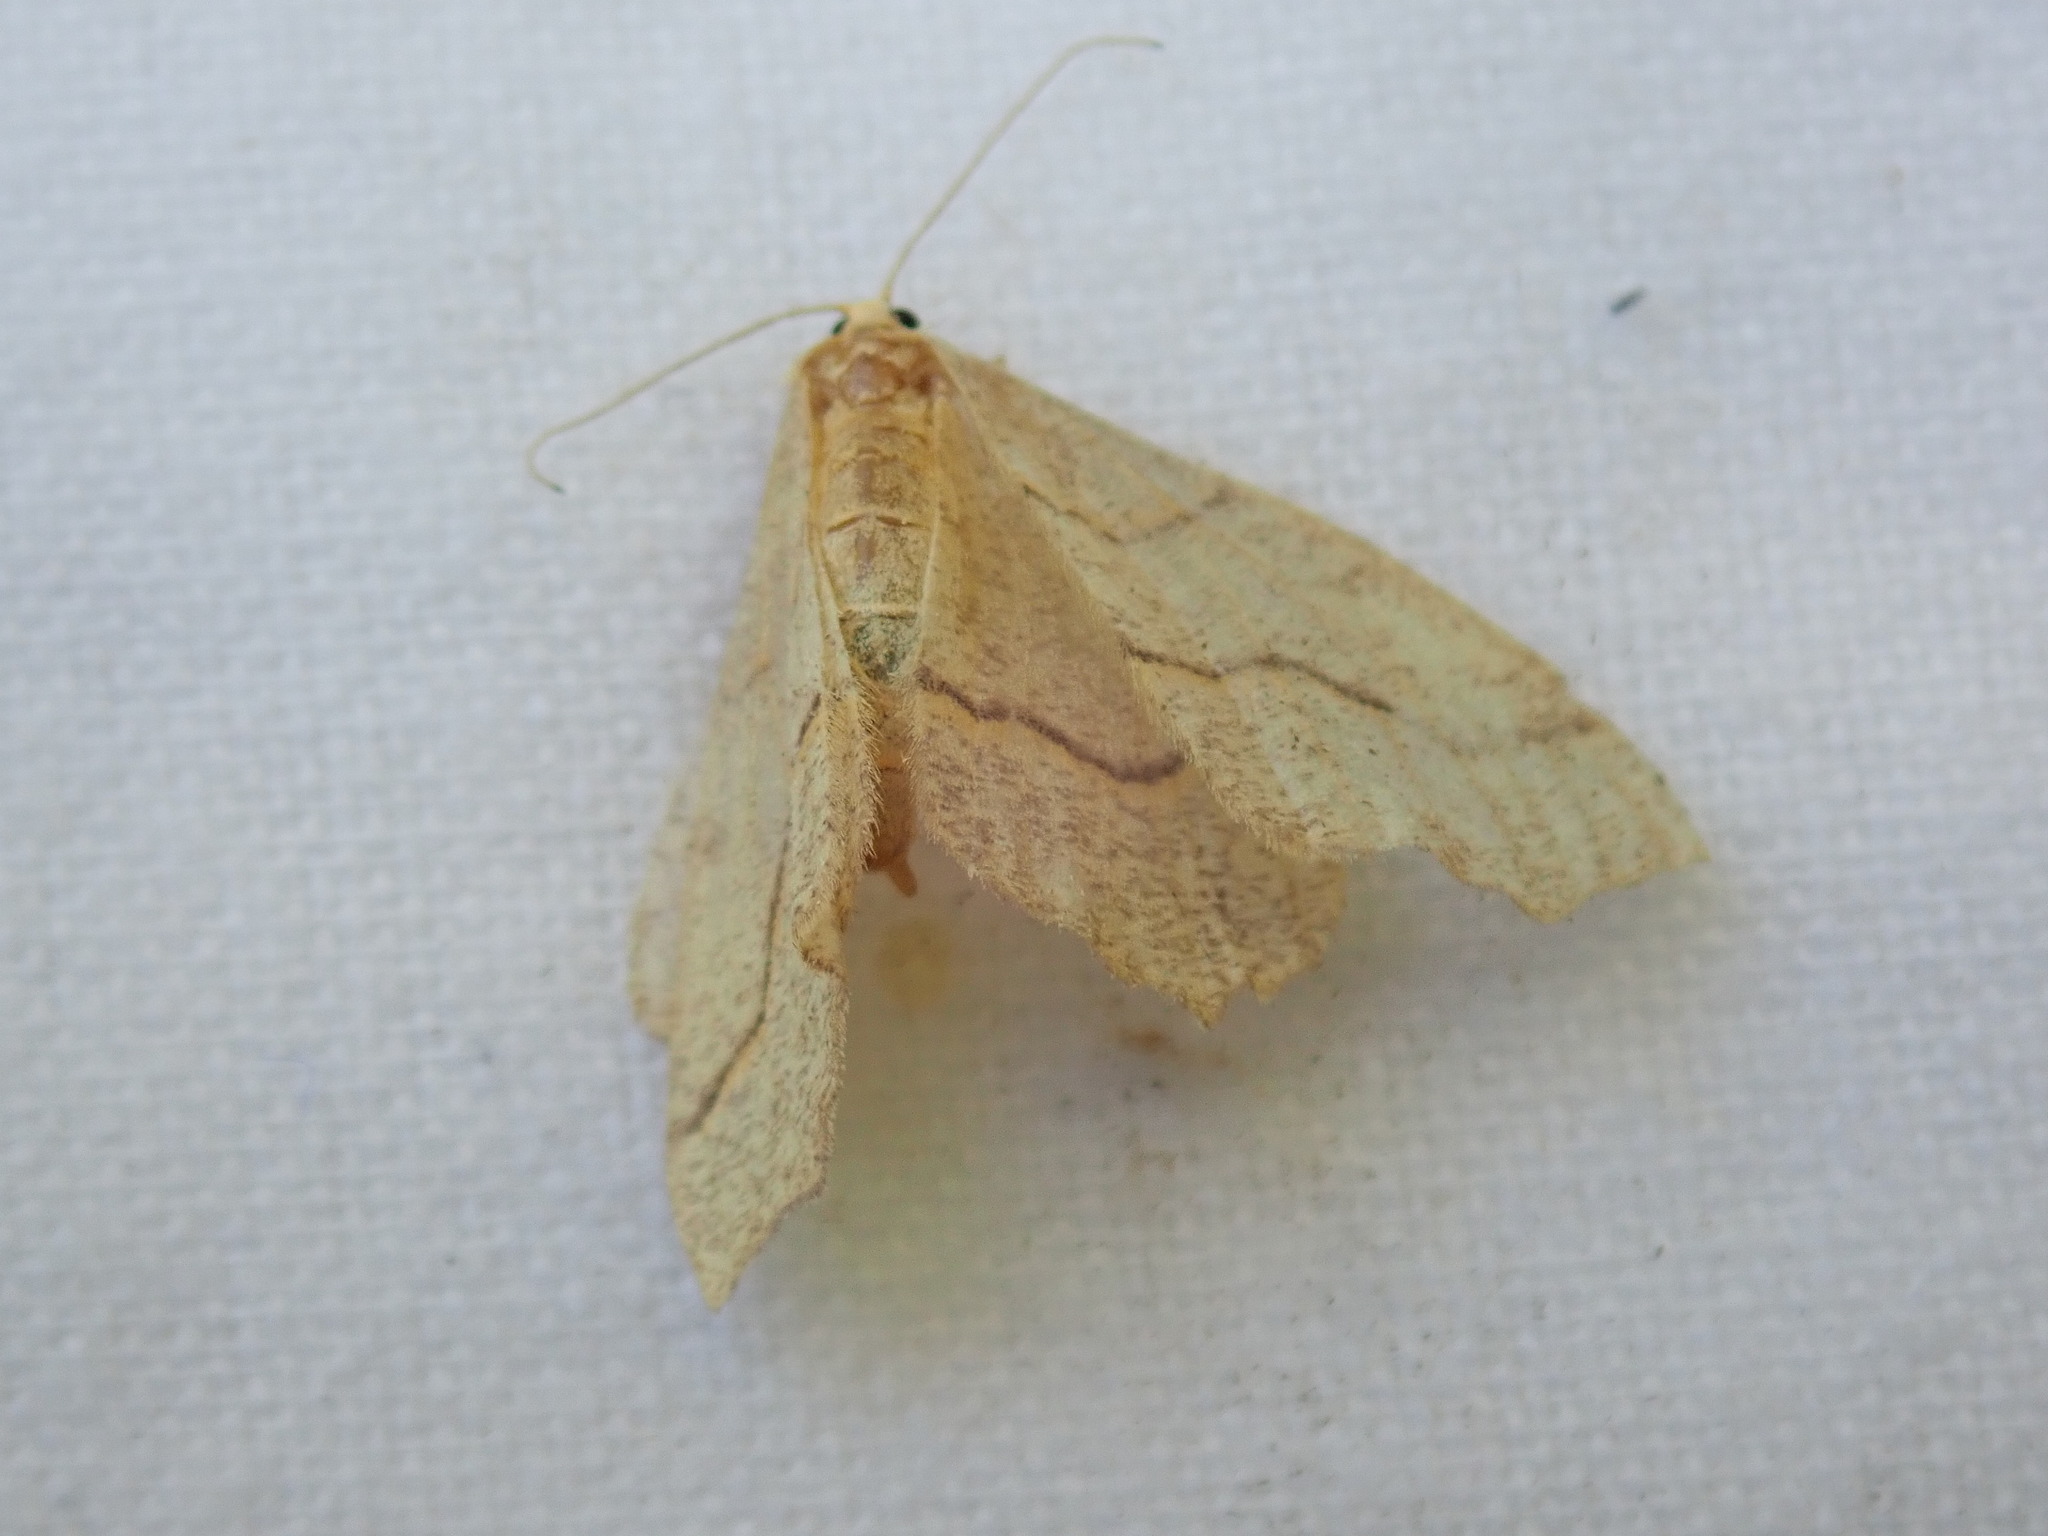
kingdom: Animalia
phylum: Arthropoda
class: Insecta
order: Lepidoptera
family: Geometridae
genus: Lambdina
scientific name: Lambdina fiscellaria
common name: Hemlock looper
